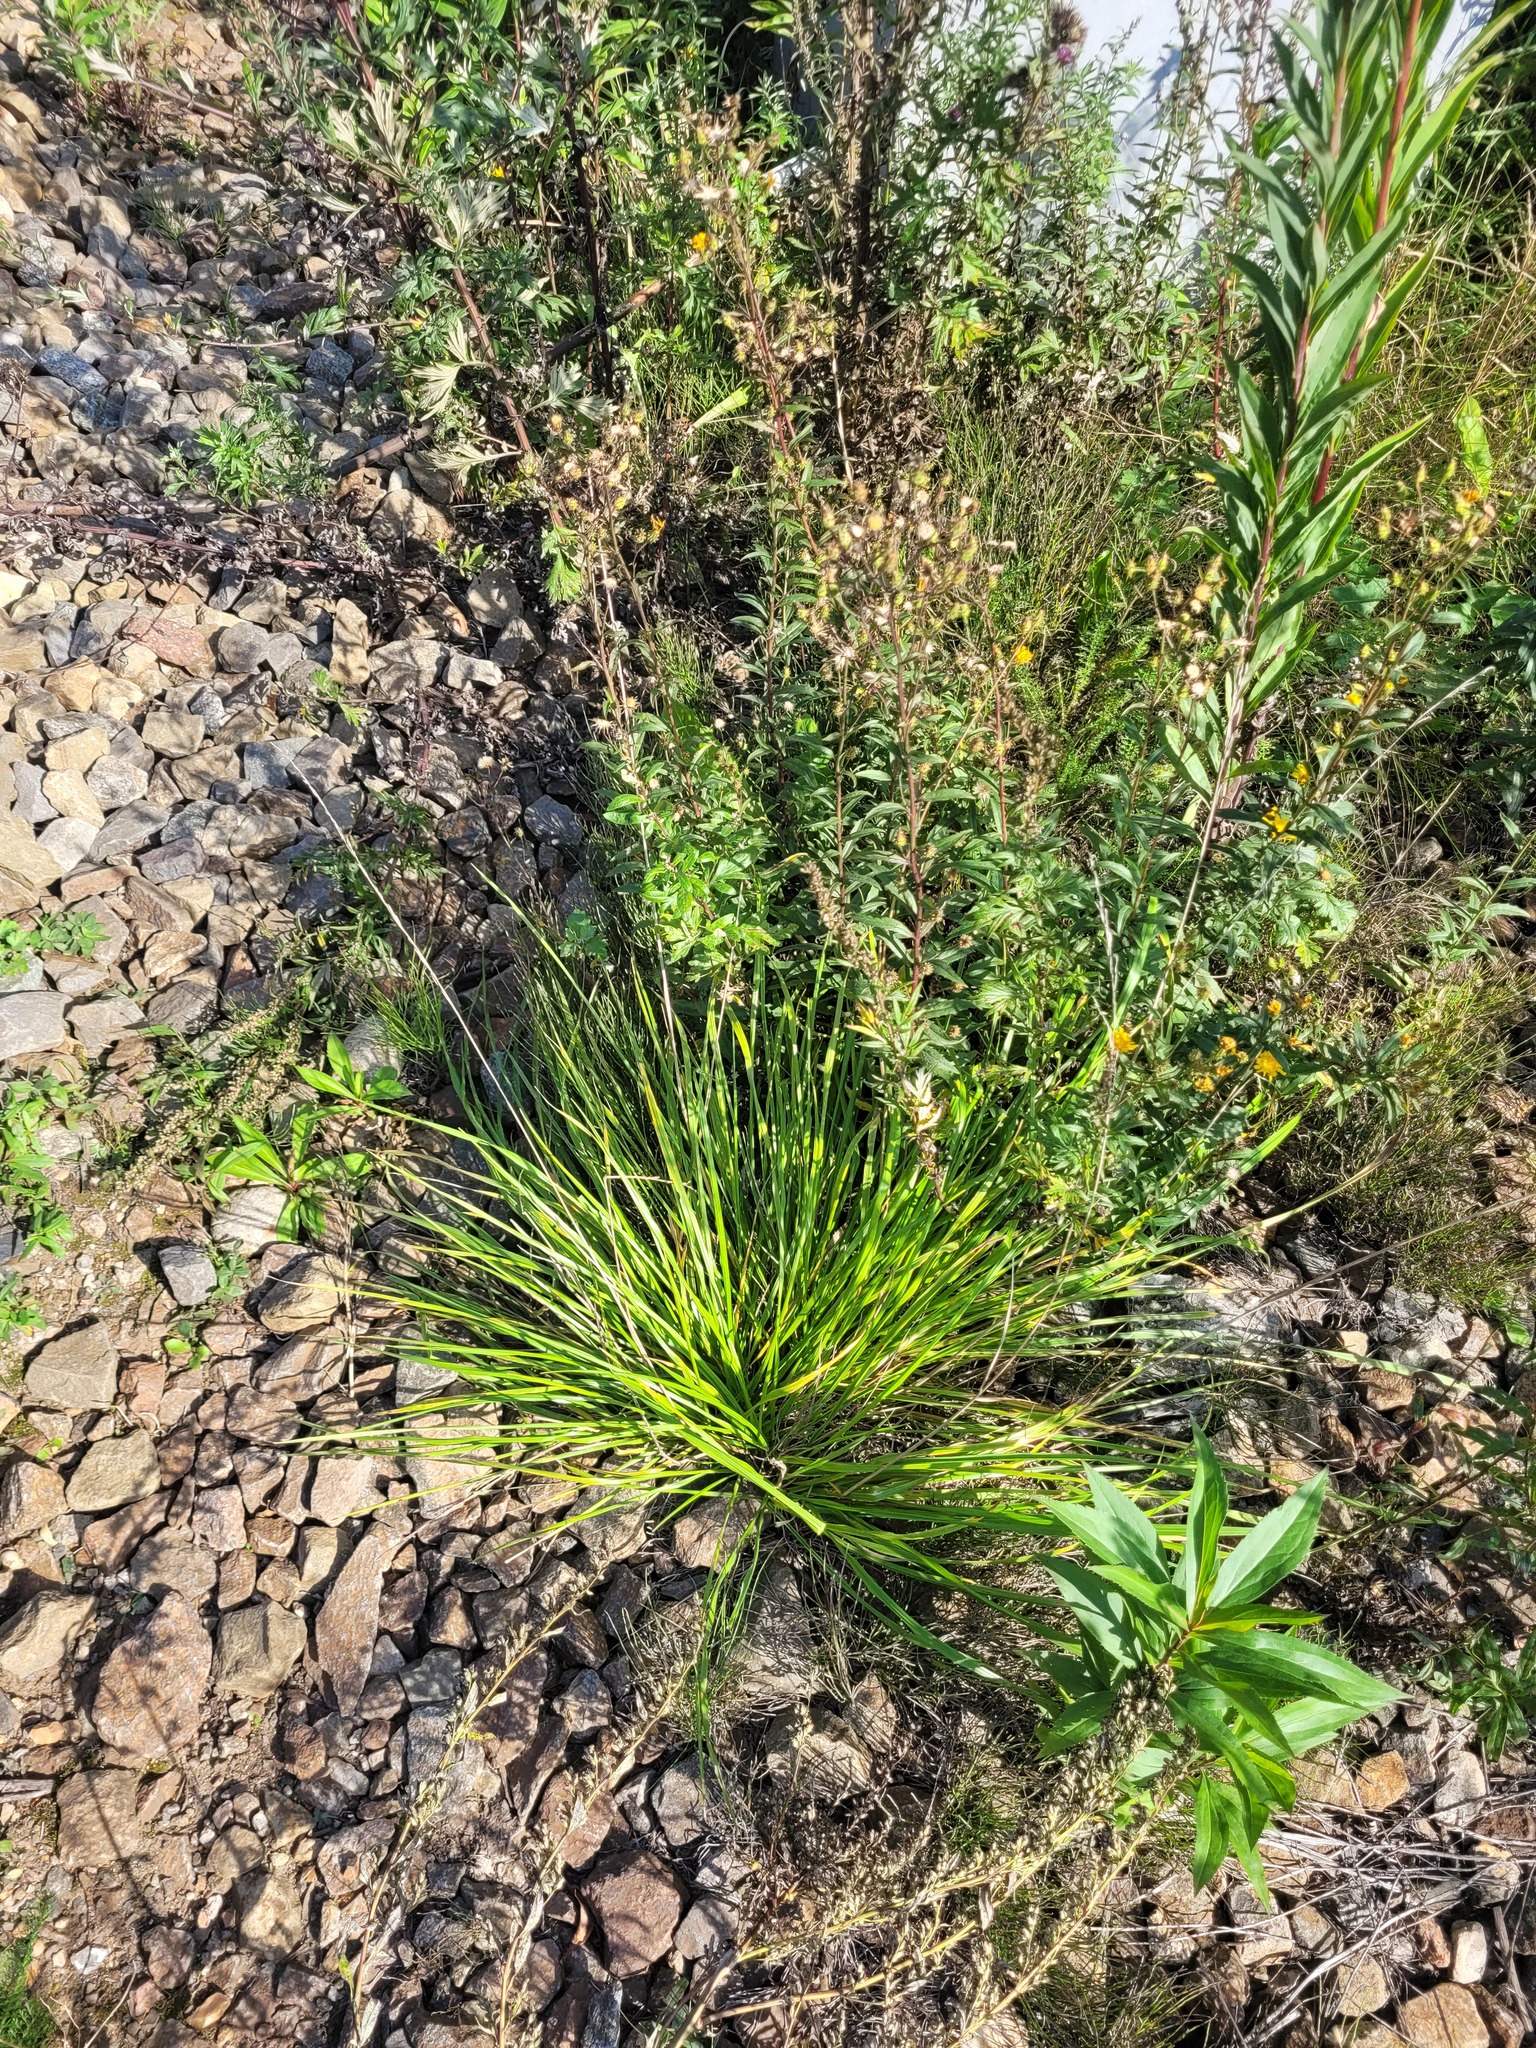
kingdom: Plantae
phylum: Tracheophyta
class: Liliopsida
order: Poales
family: Poaceae
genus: Lolium
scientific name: Lolium pratense
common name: Dover grass
